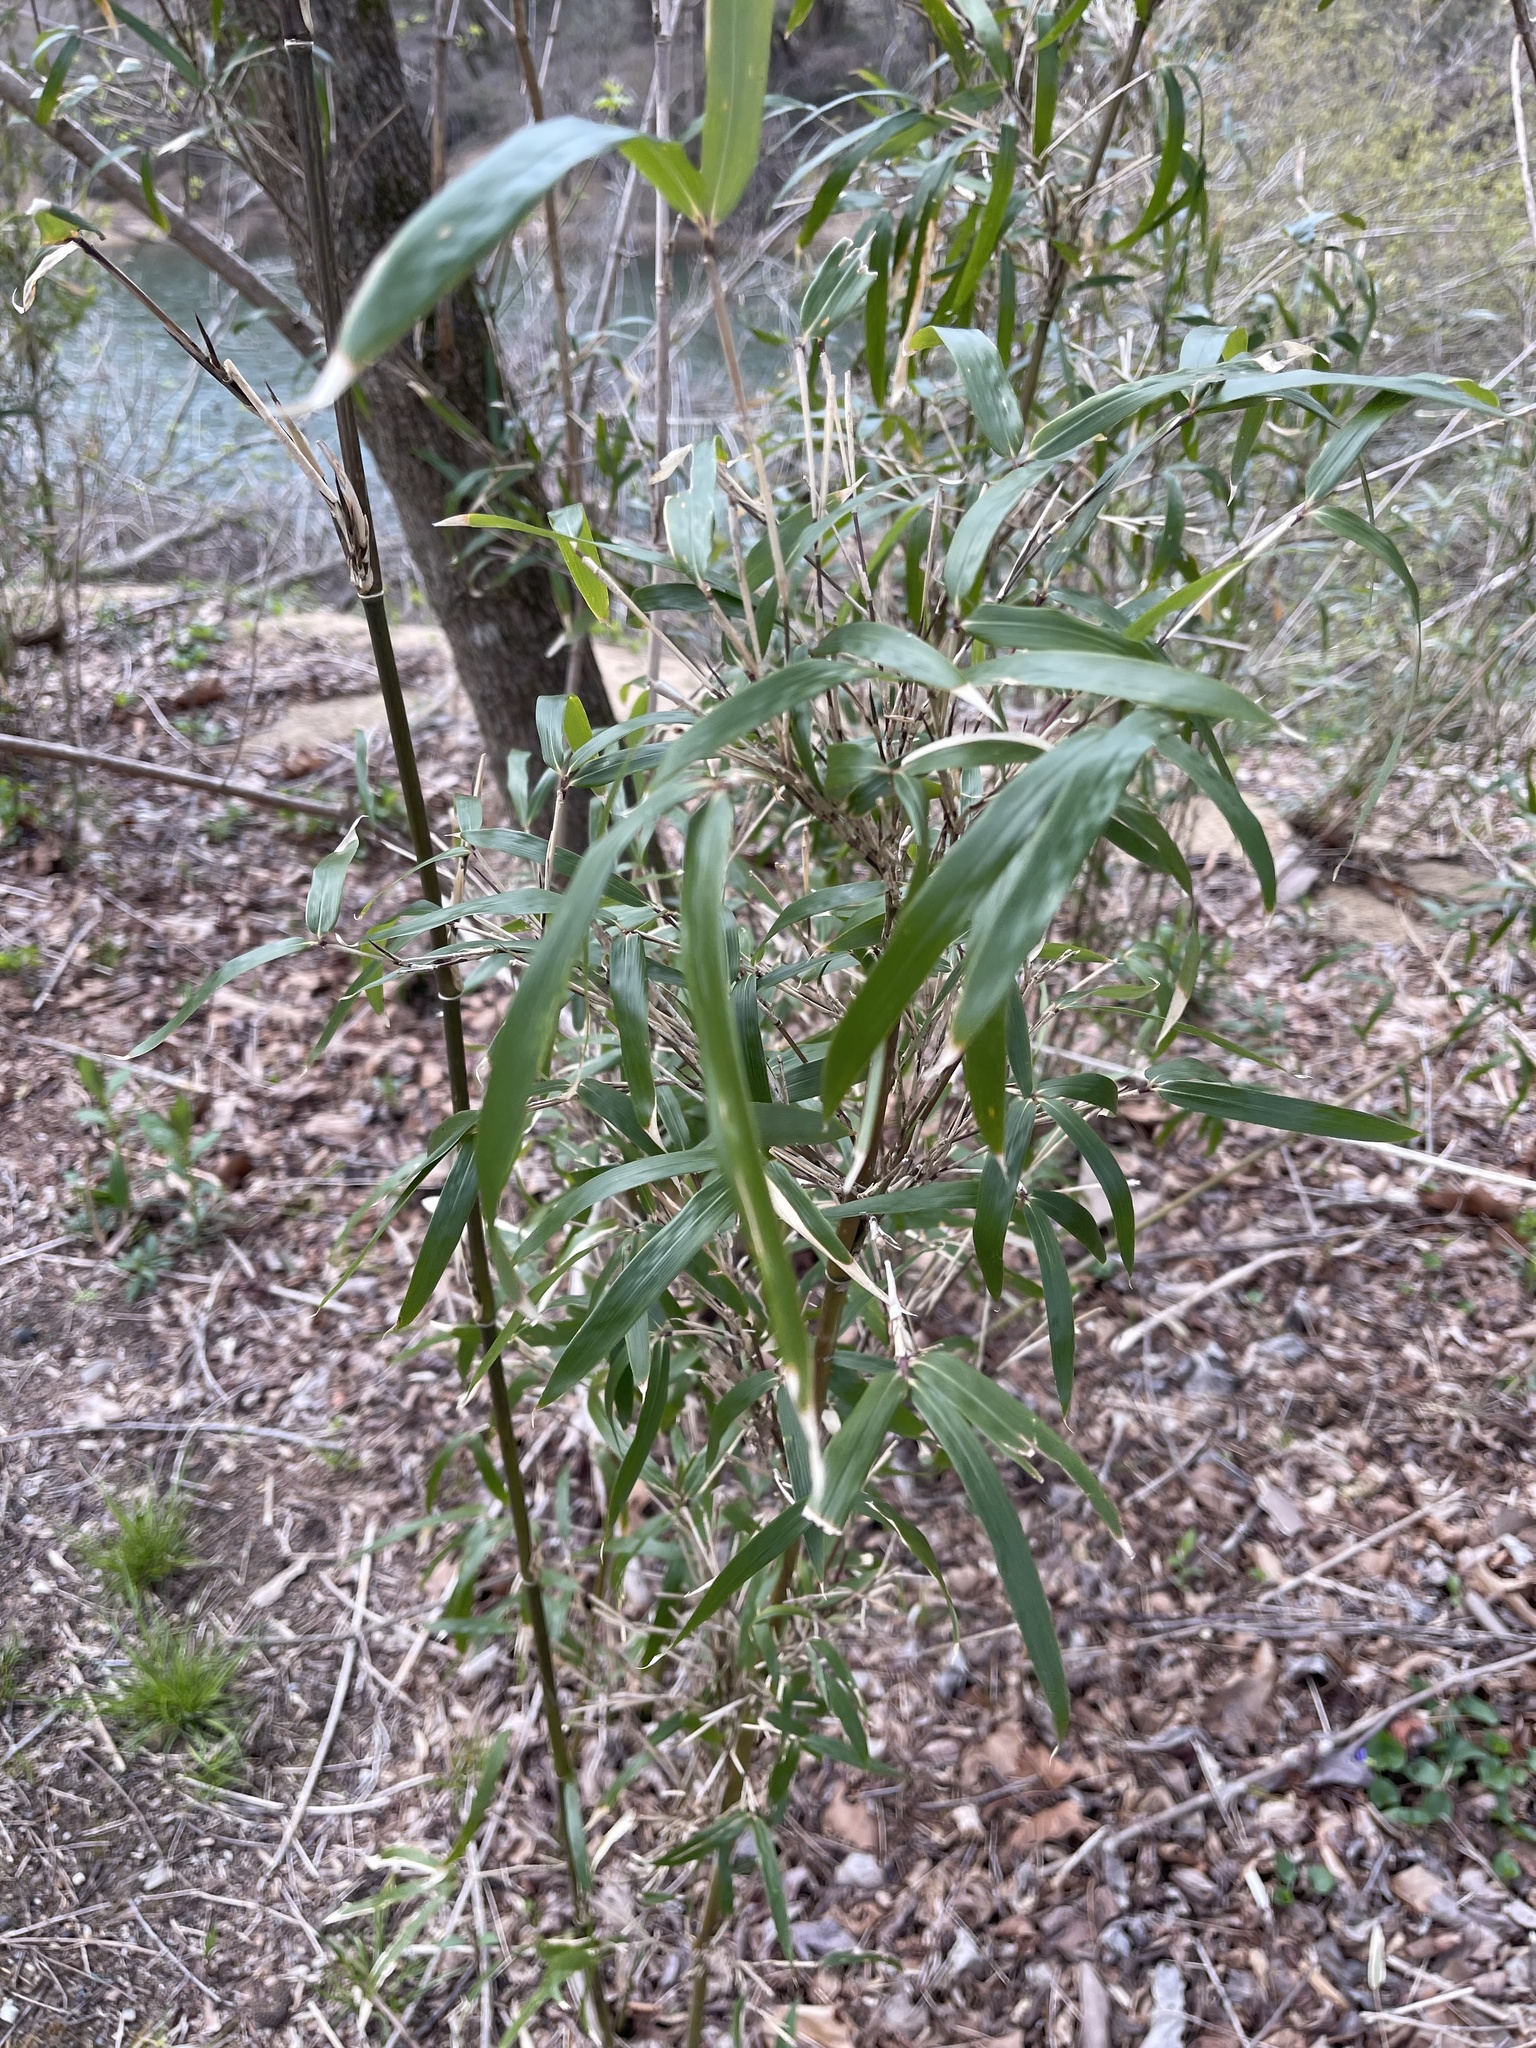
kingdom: Plantae
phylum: Tracheophyta
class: Liliopsida
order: Poales
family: Poaceae
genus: Arundinaria
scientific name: Arundinaria gigantea
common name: Giant cane
